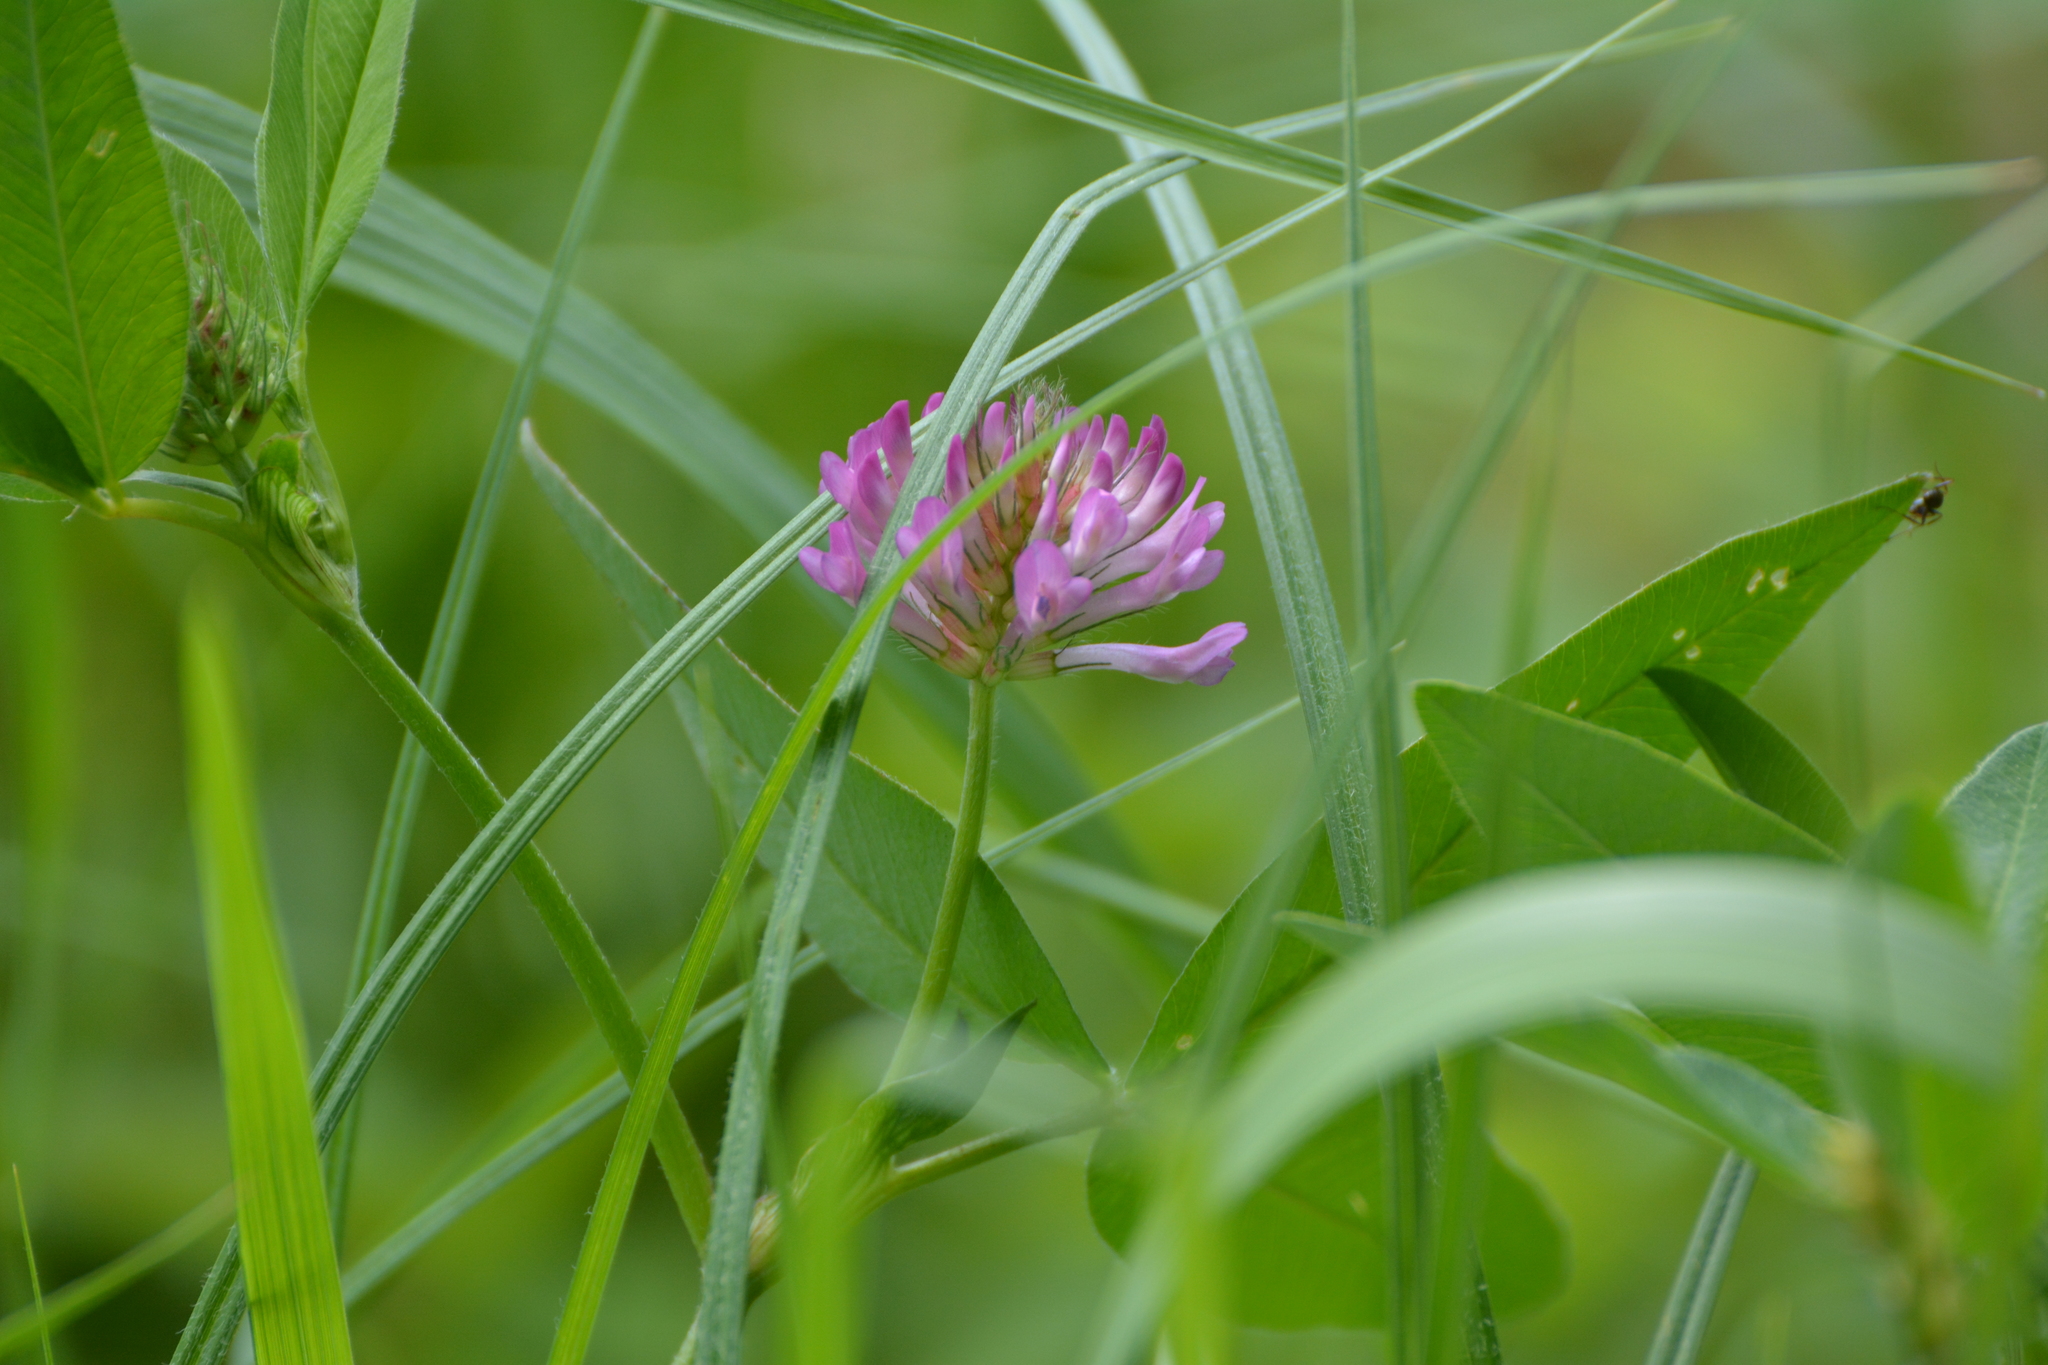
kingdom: Plantae
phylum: Tracheophyta
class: Magnoliopsida
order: Fabales
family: Fabaceae
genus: Trifolium
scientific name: Trifolium medium
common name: Zigzag clover
